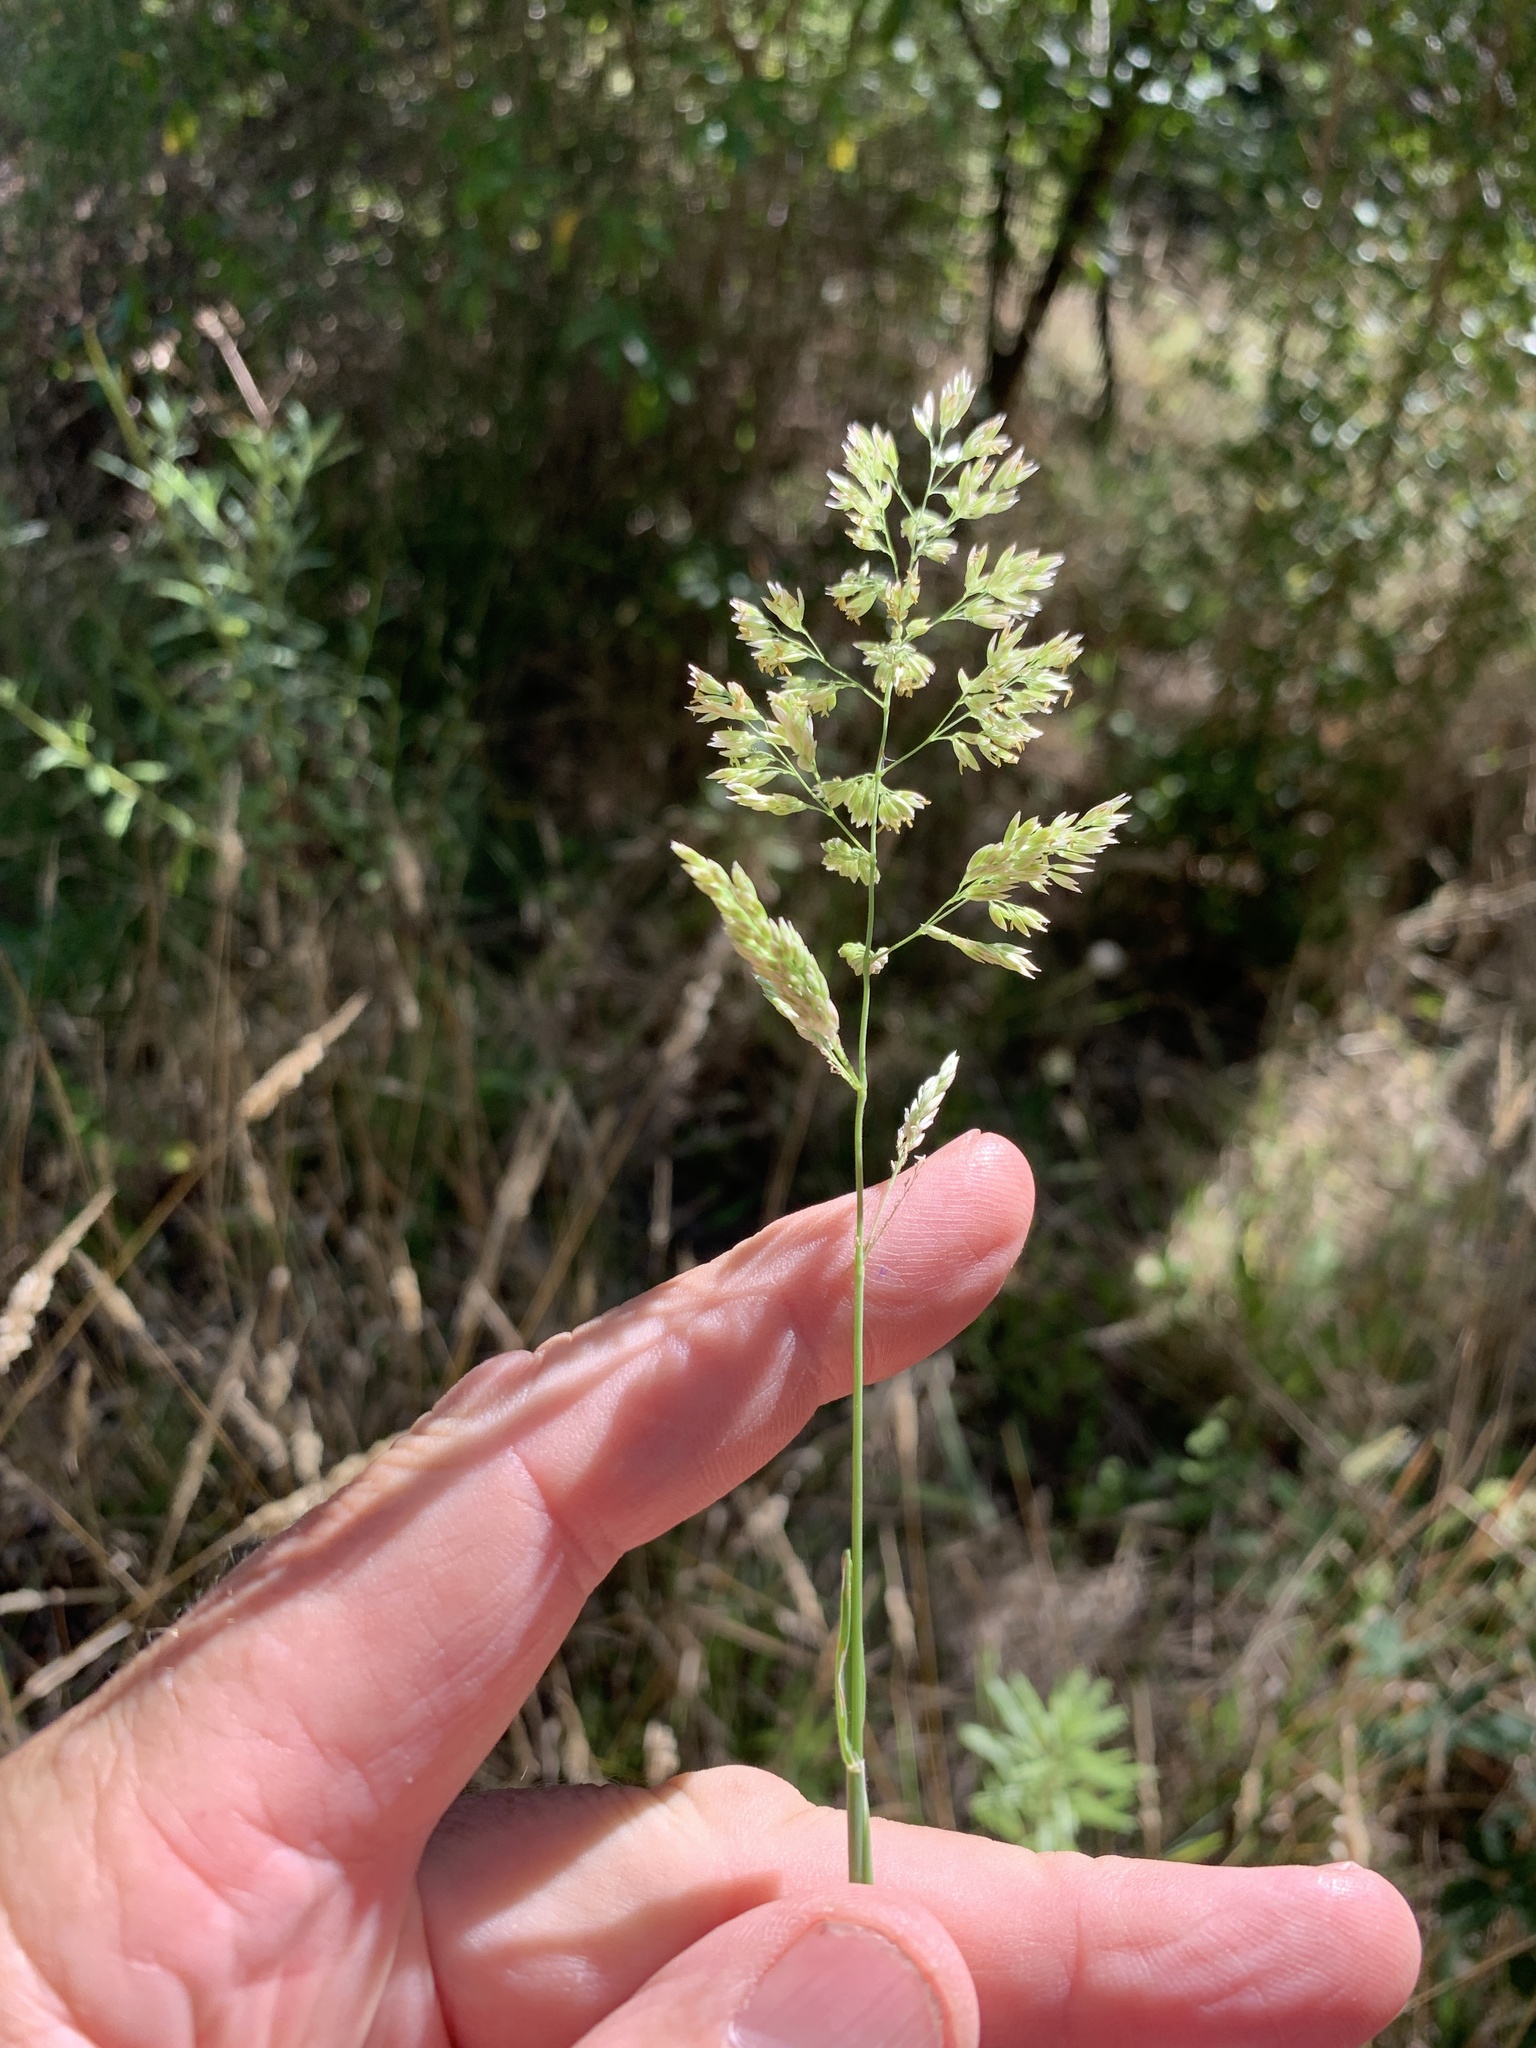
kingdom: Plantae
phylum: Tracheophyta
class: Liliopsida
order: Poales
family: Poaceae
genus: Polypogon
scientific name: Polypogon viridis
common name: Water bent
